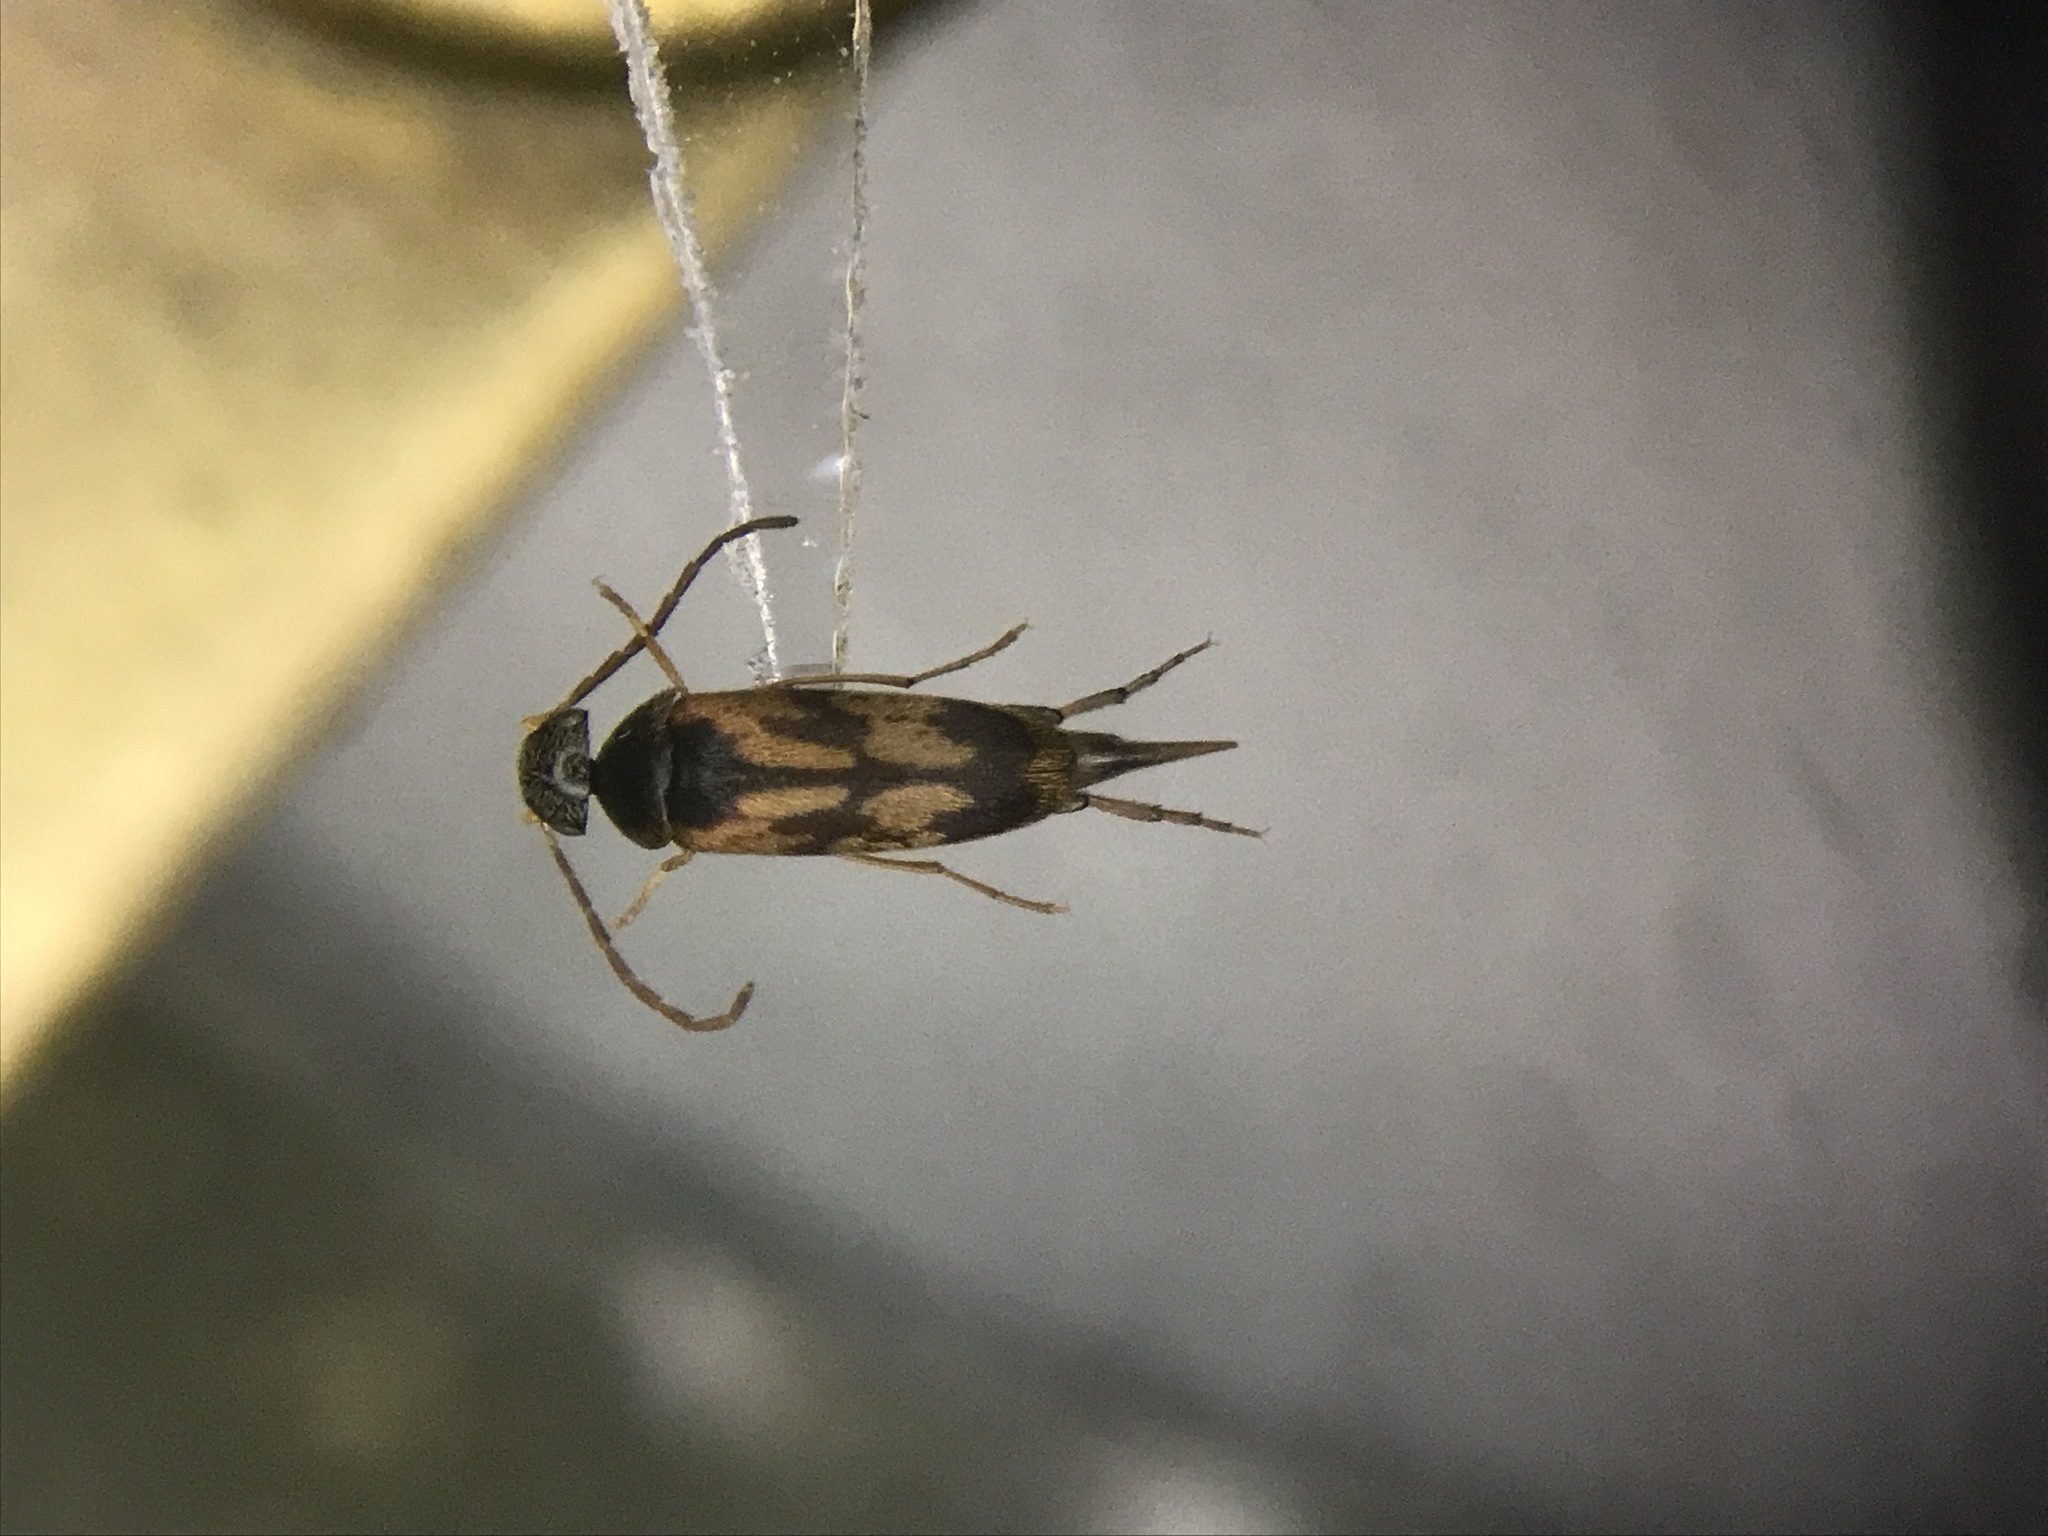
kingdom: Animalia
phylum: Arthropoda
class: Insecta
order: Coleoptera
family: Mordellidae
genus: Falsomordellistena
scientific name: Falsomordellistena bihamata
